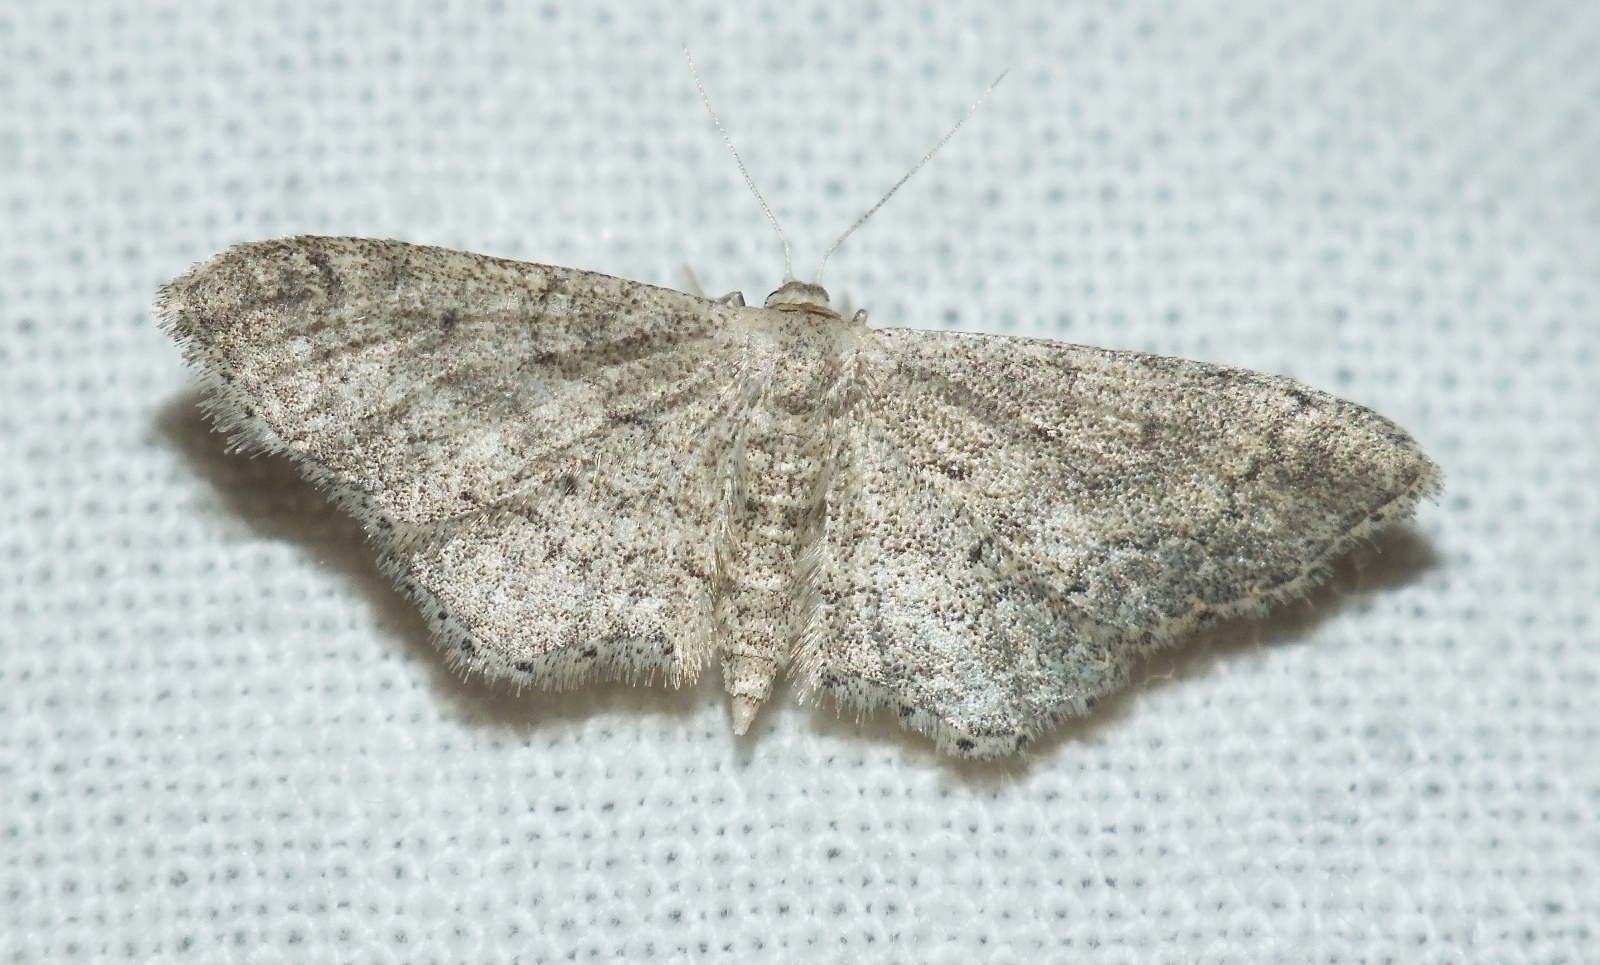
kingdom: Animalia
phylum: Arthropoda
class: Insecta
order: Lepidoptera
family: Geometridae
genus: Idaea
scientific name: Idaea descitaria
